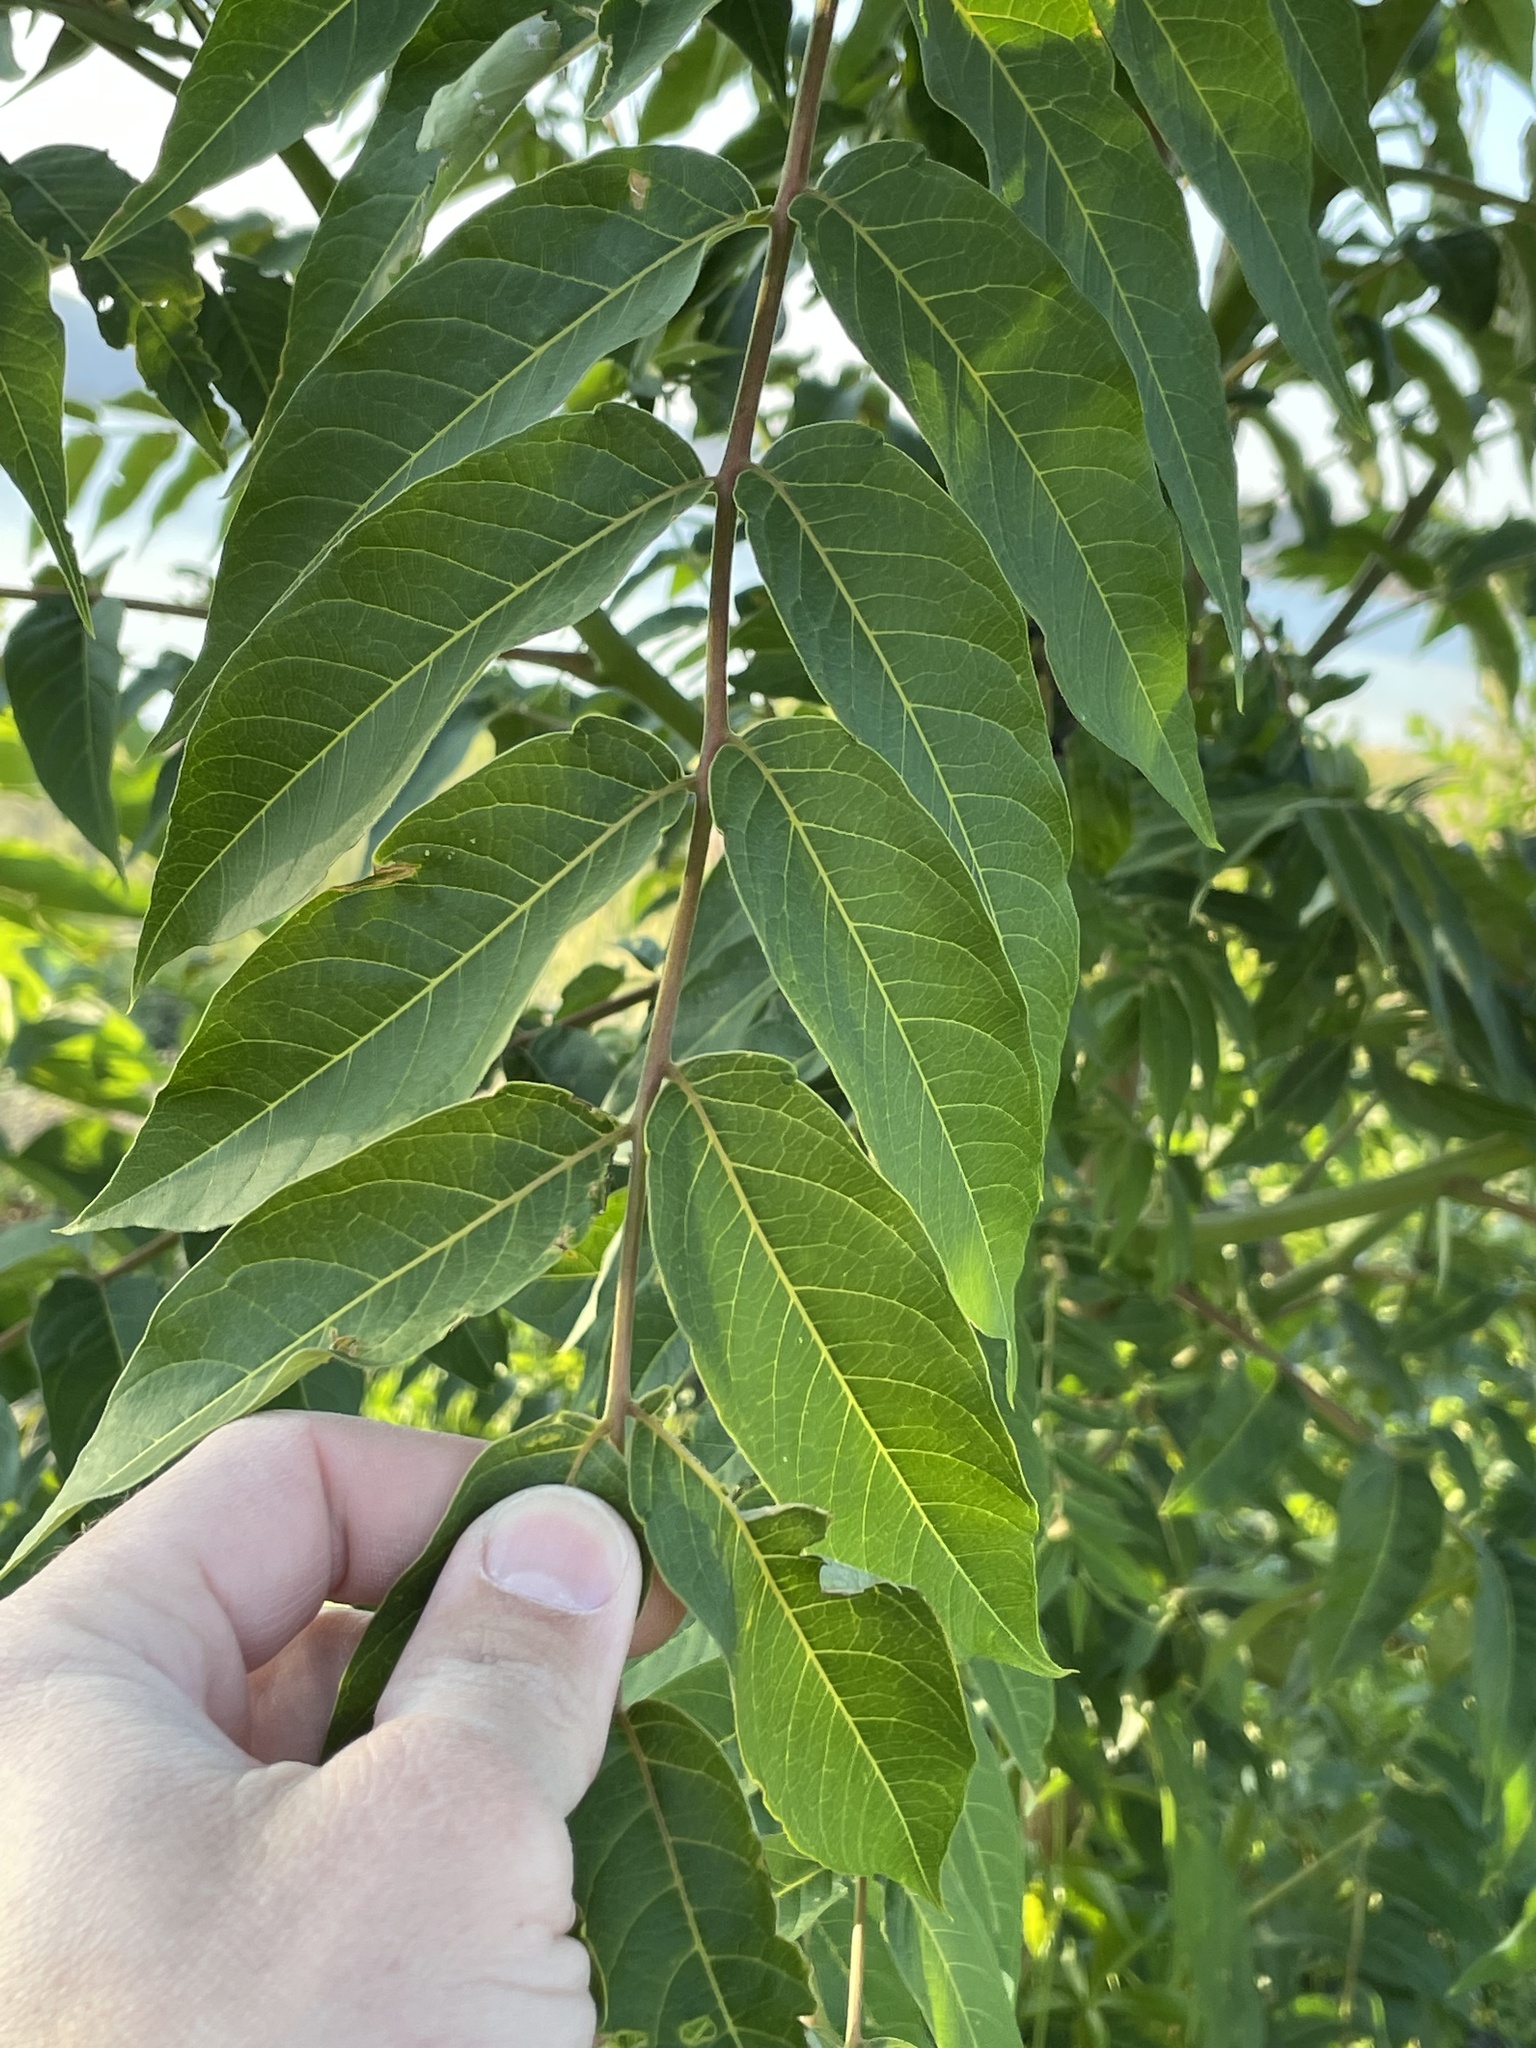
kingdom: Plantae
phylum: Tracheophyta
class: Magnoliopsida
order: Sapindales
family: Simaroubaceae
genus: Ailanthus
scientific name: Ailanthus altissima
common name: Tree-of-heaven
